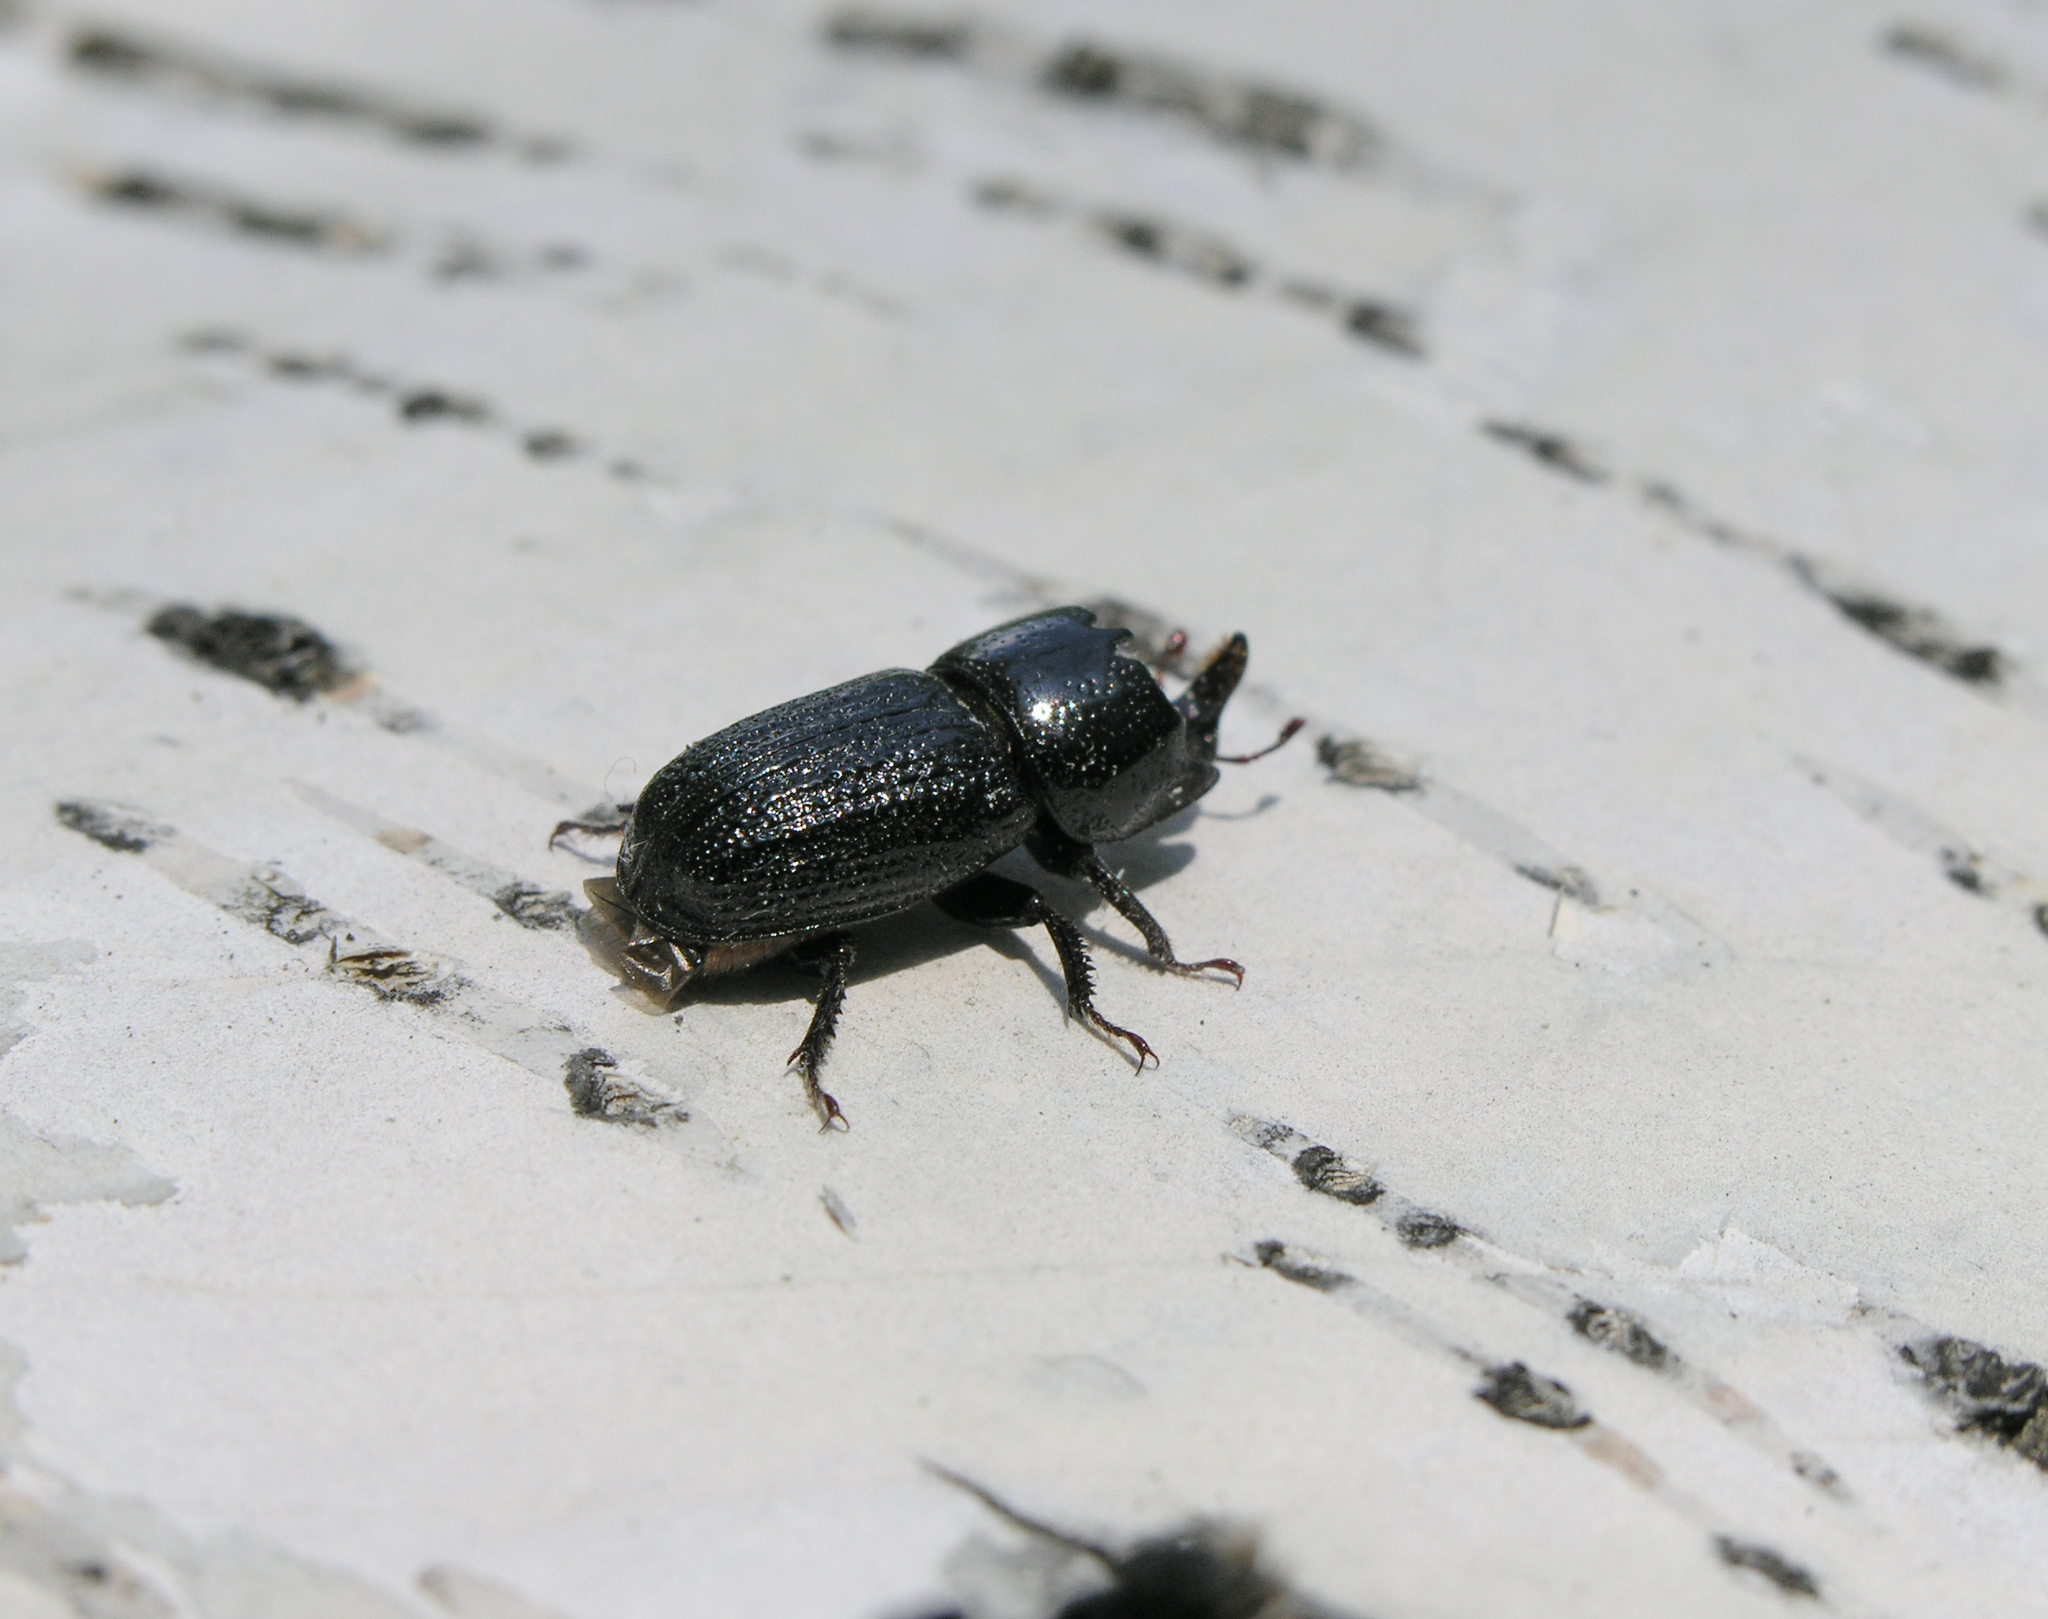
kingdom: Animalia
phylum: Arthropoda
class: Insecta
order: Coleoptera
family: Lucanidae
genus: Sinodendron
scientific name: Sinodendron cylindricum
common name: Rhinoceros beetle
